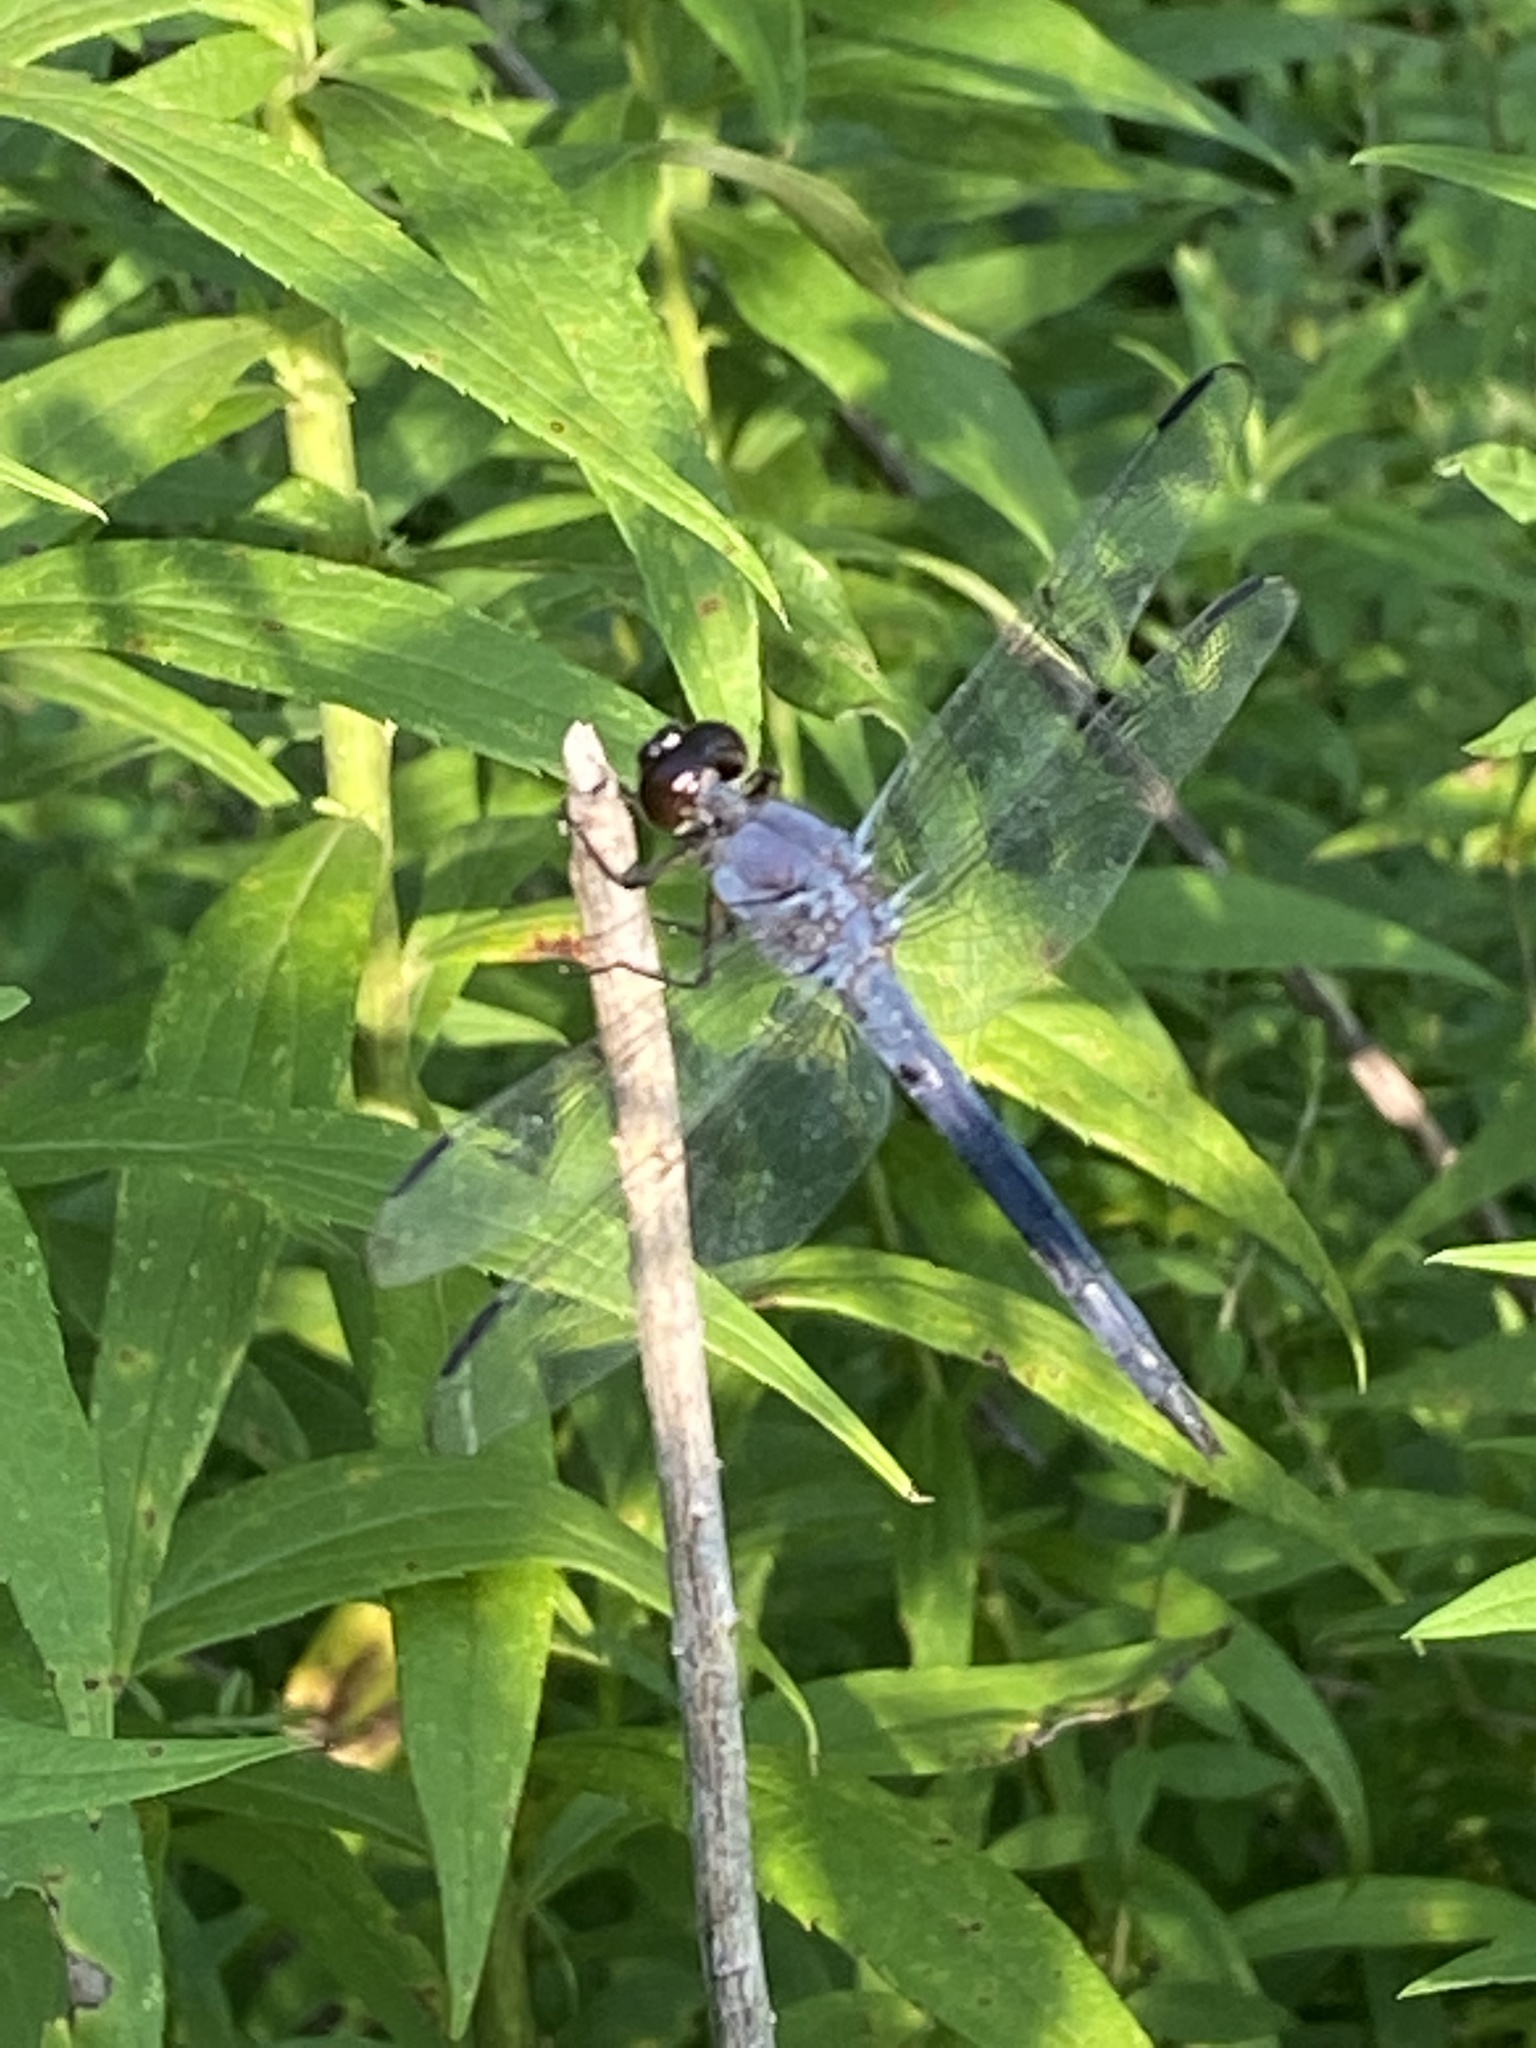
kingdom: Animalia
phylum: Arthropoda
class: Insecta
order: Odonata
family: Libellulidae
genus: Libellula
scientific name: Libellula incesta
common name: Slaty skimmer
